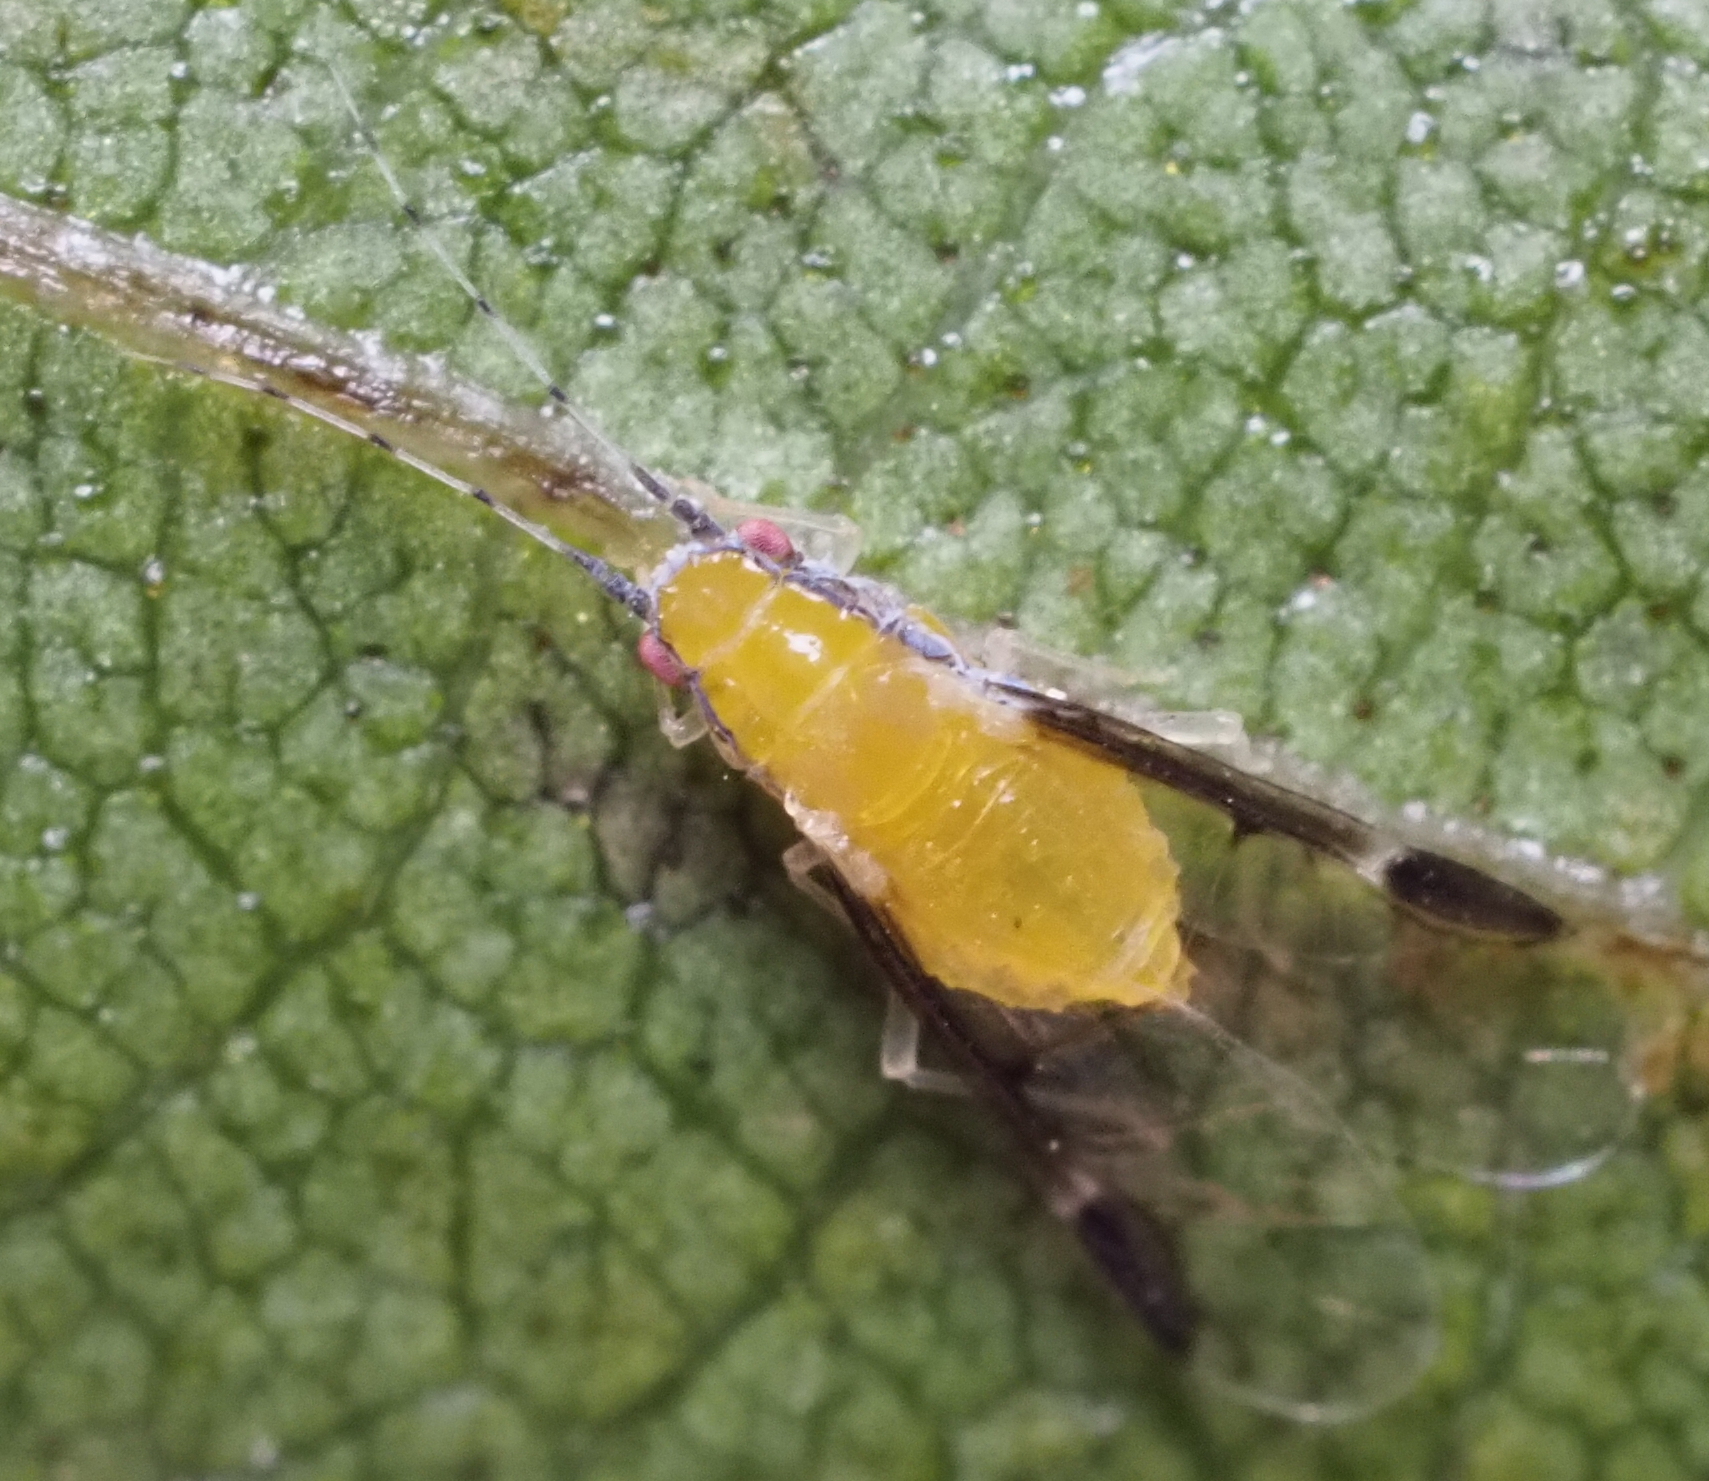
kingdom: Animalia
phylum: Arthropoda
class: Insecta
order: Hemiptera
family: Aphididae
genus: Monellia
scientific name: Monellia caryella
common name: Blackmargined aphid
